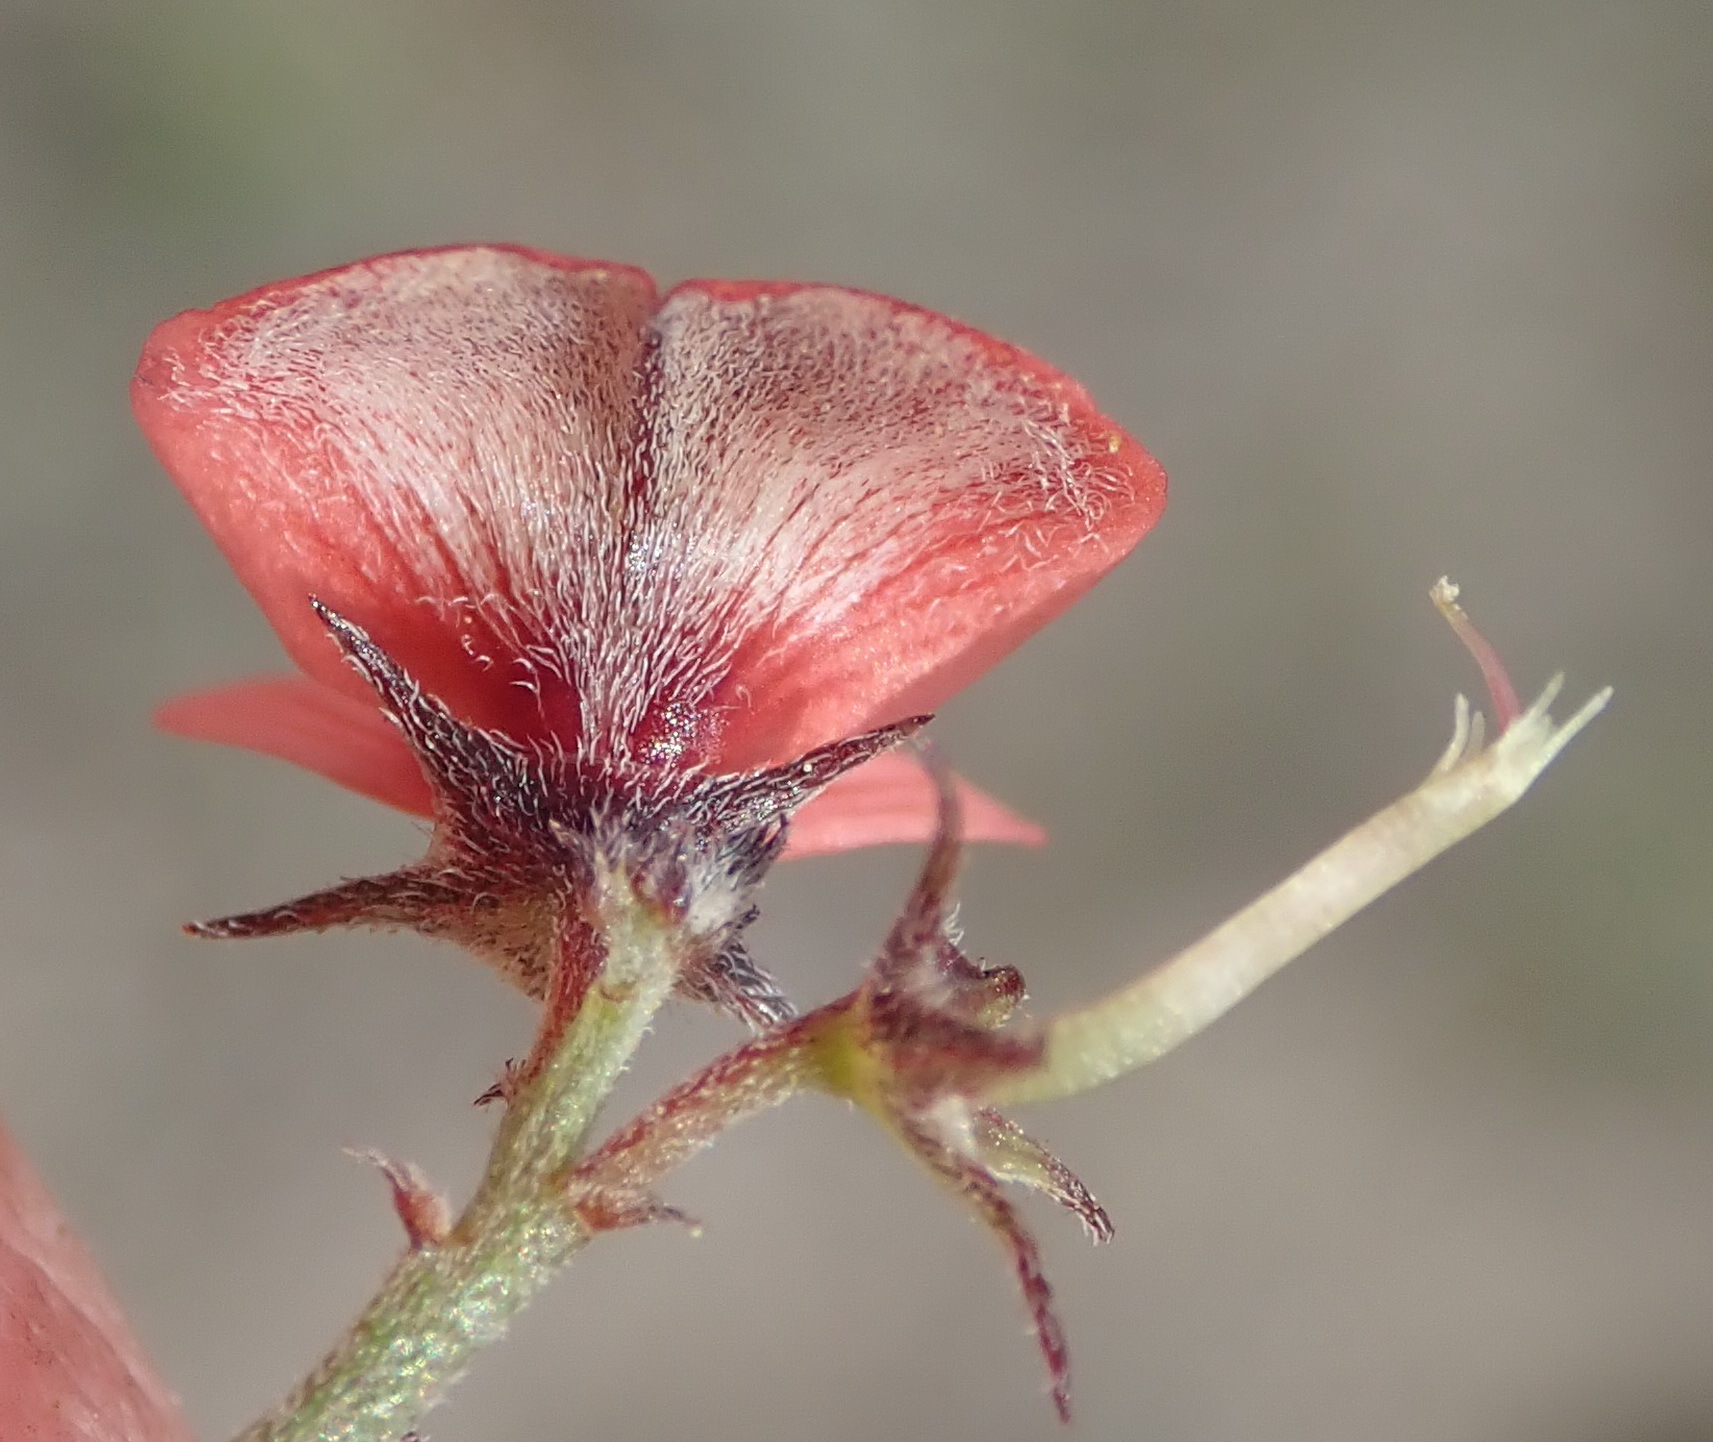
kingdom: Plantae
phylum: Tracheophyta
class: Magnoliopsida
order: Fabales
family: Fabaceae
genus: Indigofera
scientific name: Indigofera priorii
